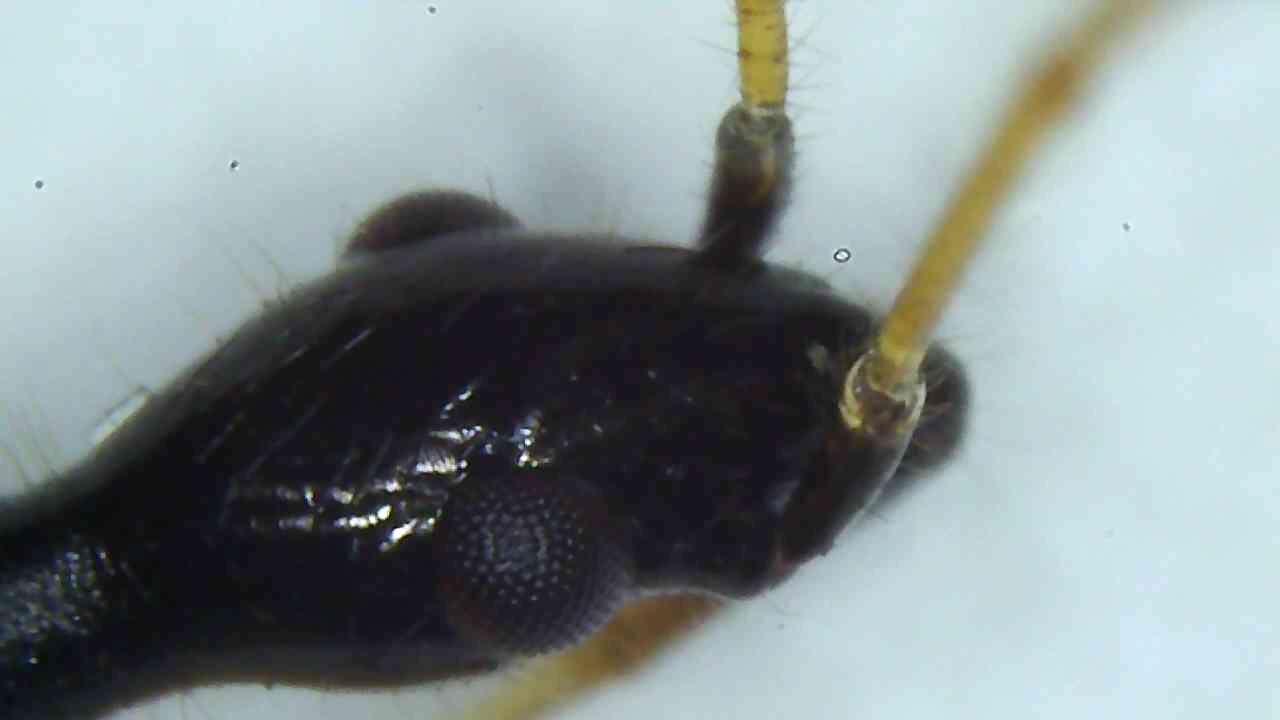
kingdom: Animalia
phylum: Arthropoda
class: Insecta
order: Hemiptera
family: Rhyparochromidae
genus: Myodocha
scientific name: Myodocha serripes
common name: Long-necked seed bug
